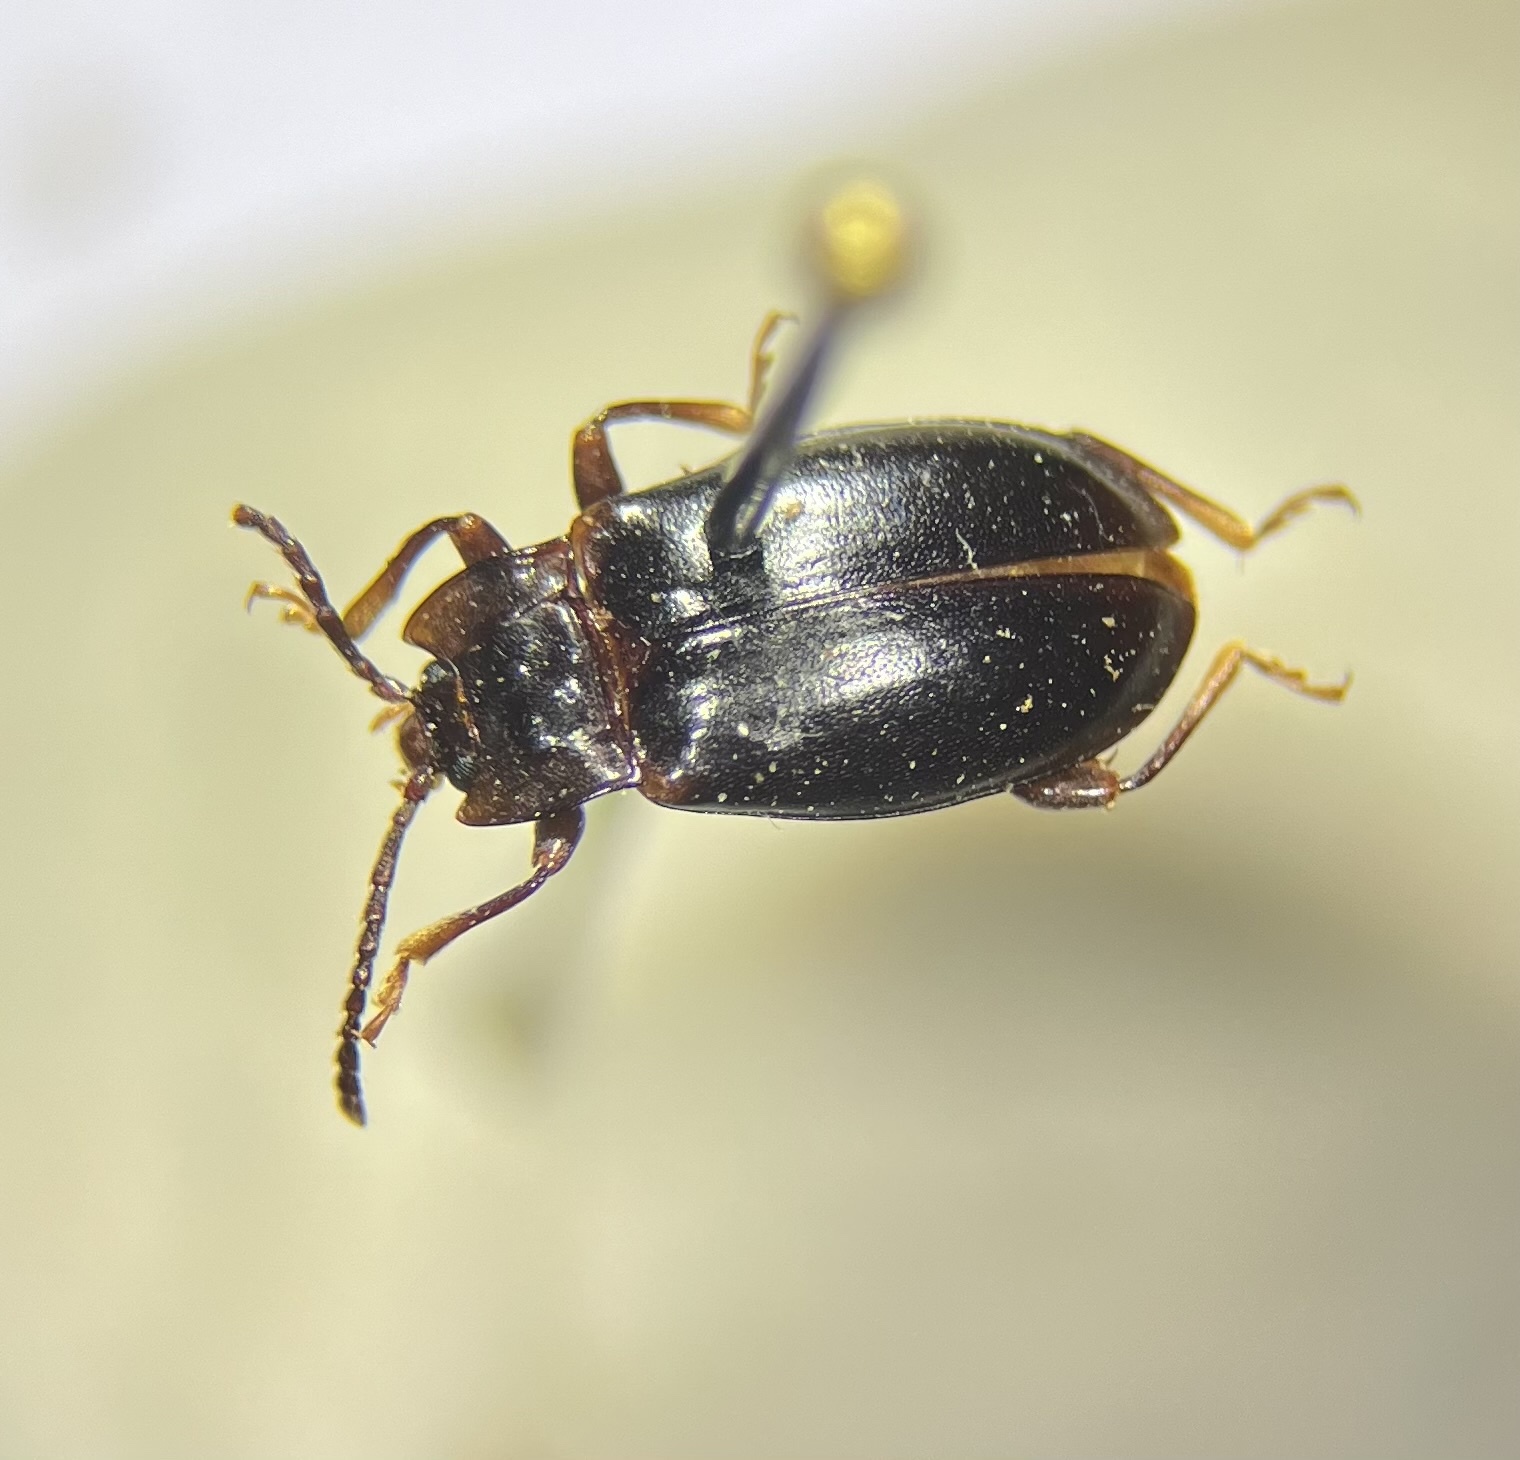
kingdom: Animalia
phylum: Arthropoda
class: Insecta
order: Coleoptera
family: Endomychidae
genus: Aphorista
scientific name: Aphorista morosa
